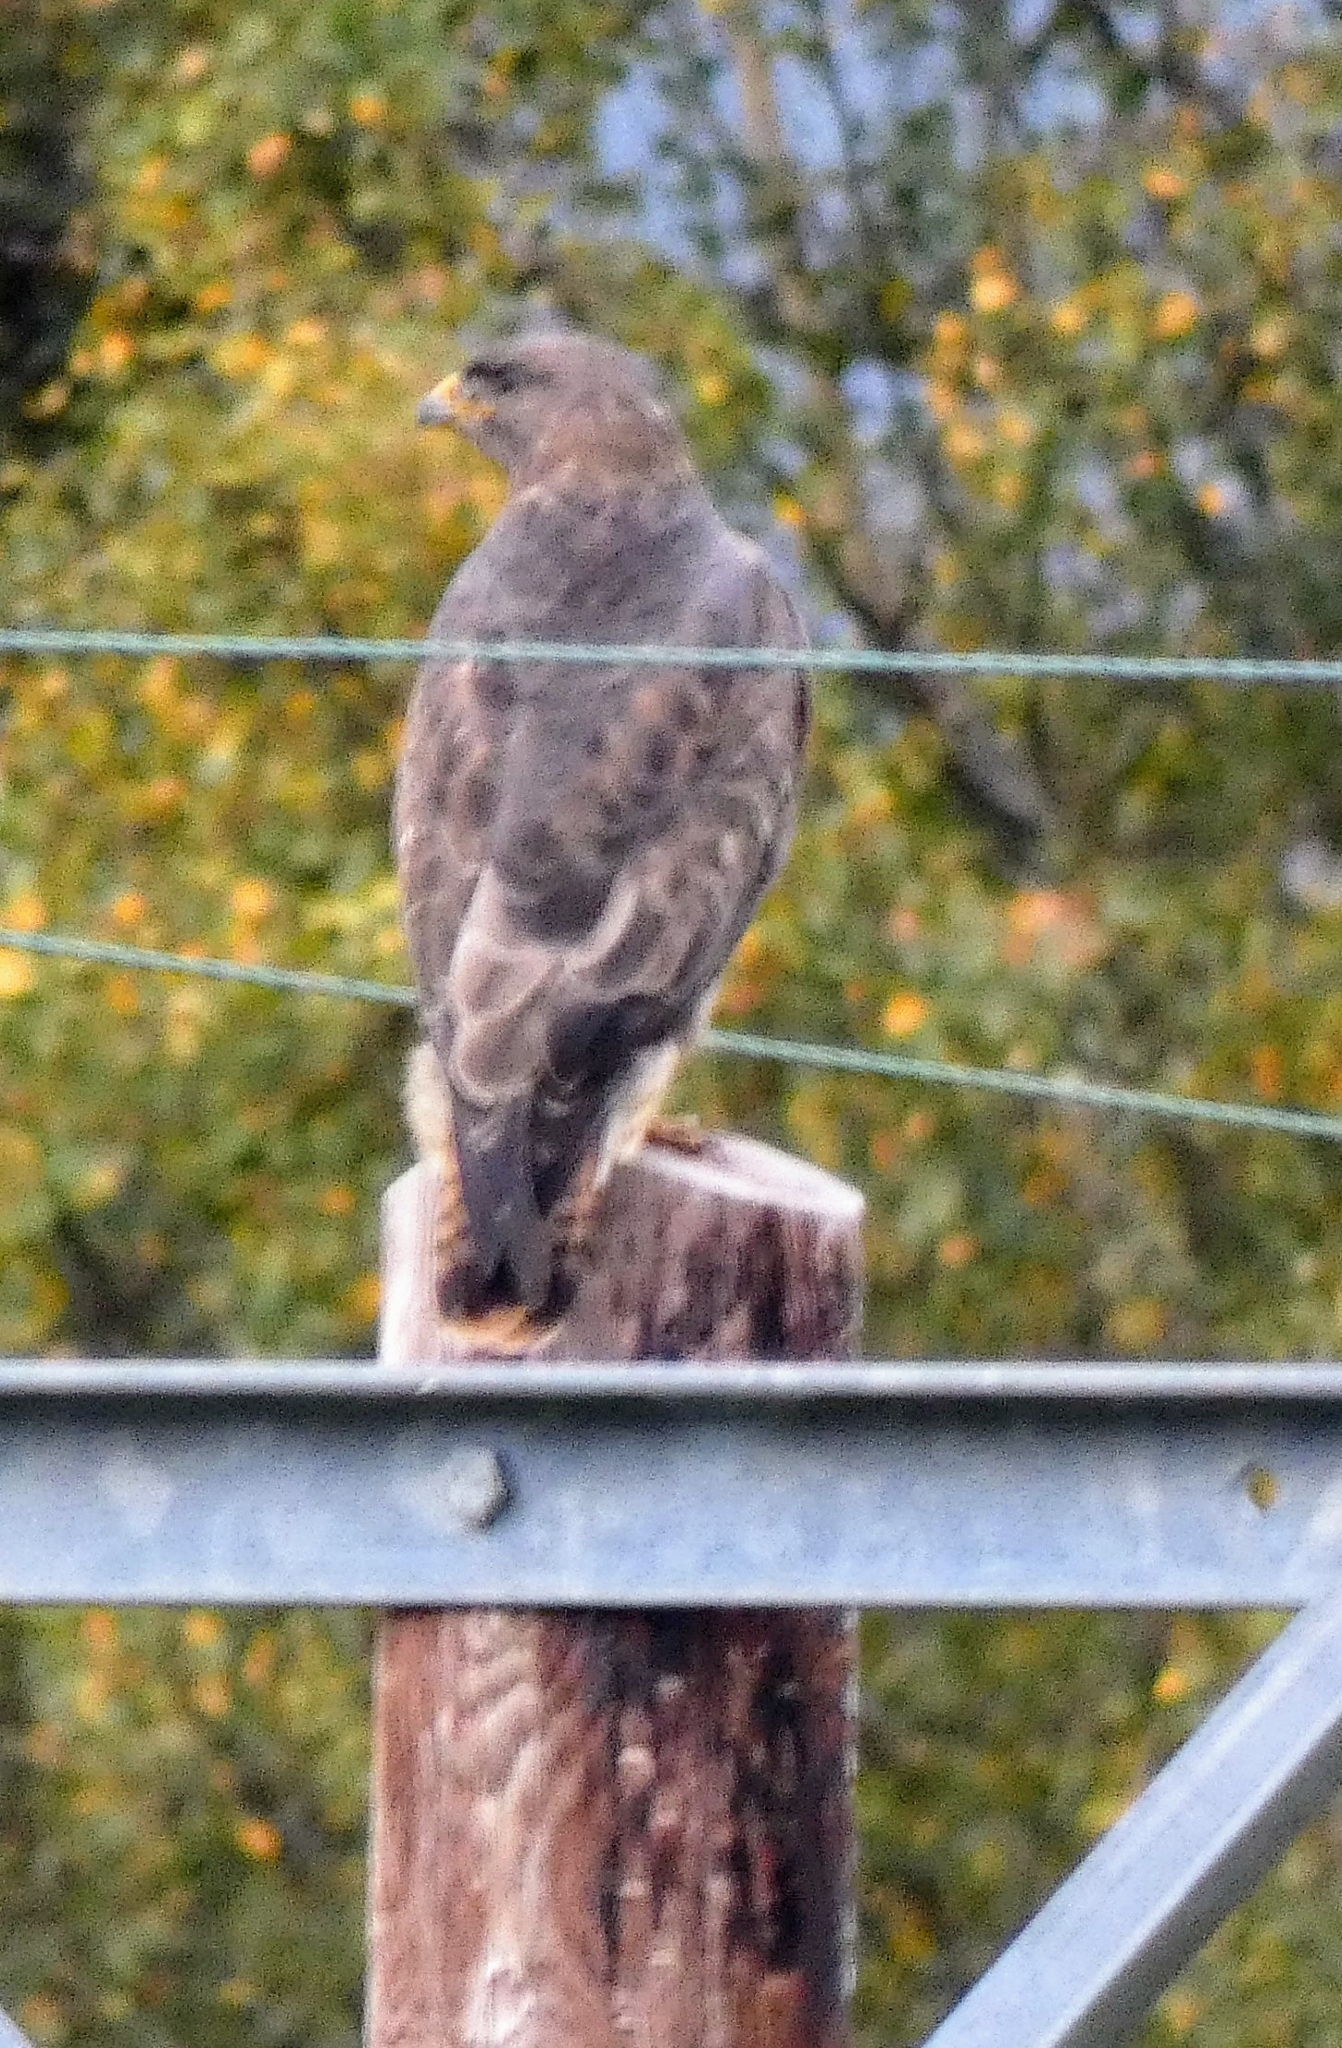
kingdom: Animalia
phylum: Chordata
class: Aves
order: Accipitriformes
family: Accipitridae
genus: Buteo
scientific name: Buteo buteo
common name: Common buzzard
